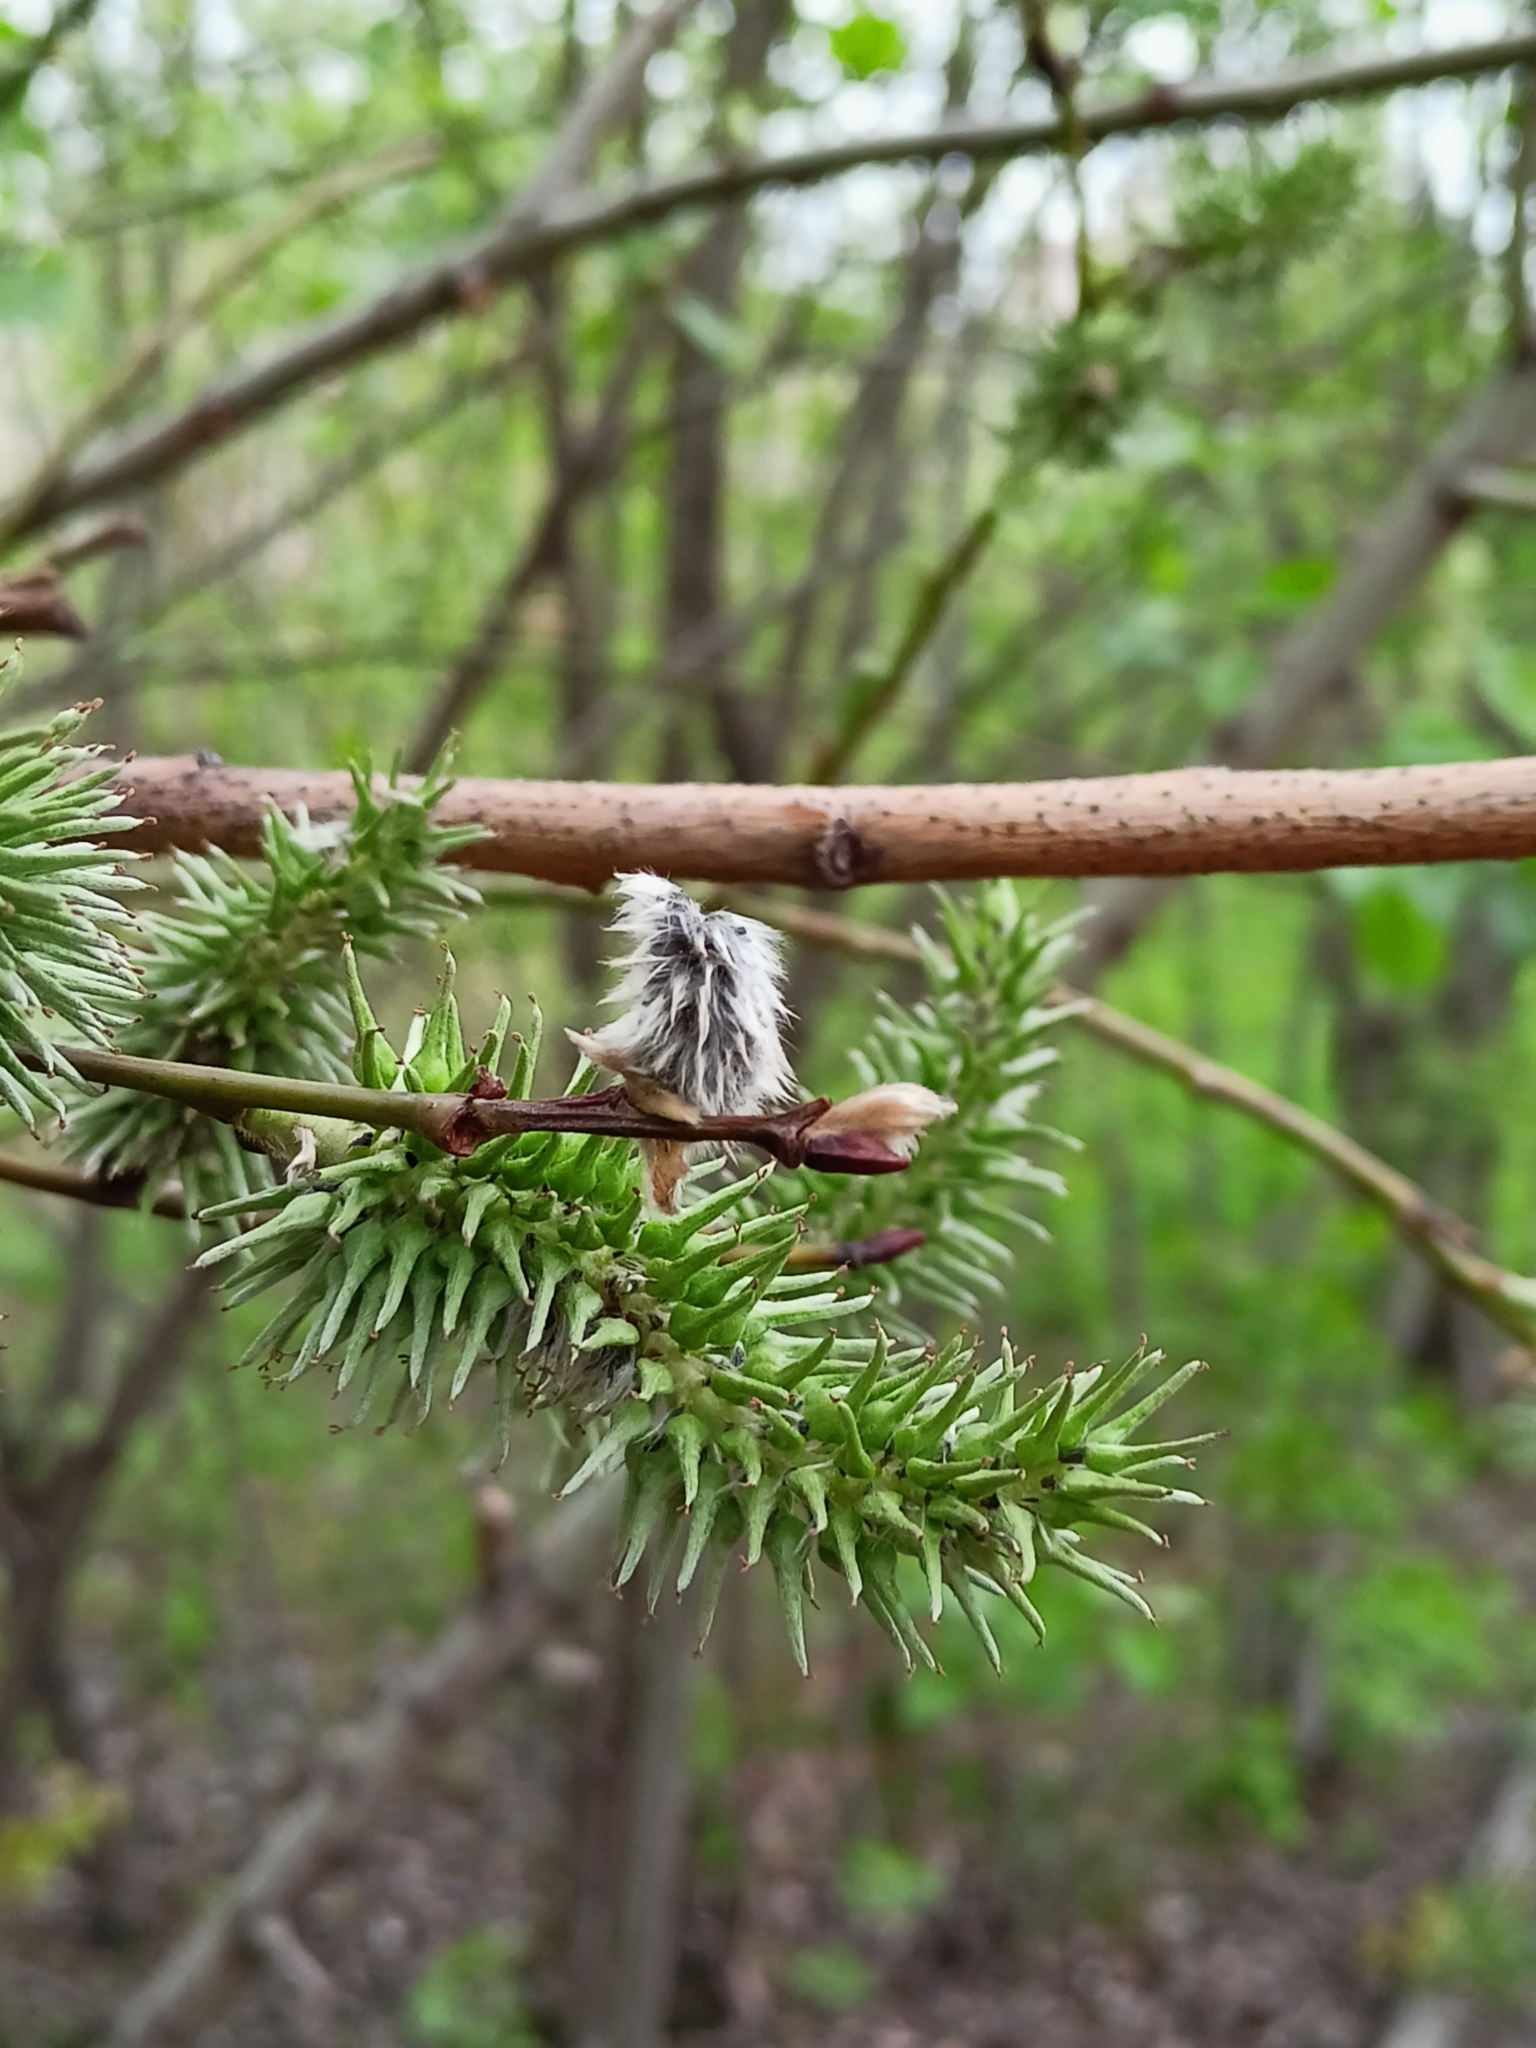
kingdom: Plantae
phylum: Tracheophyta
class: Magnoliopsida
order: Malpighiales
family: Salicaceae
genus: Salix
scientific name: Salix caprea
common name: Goat willow
